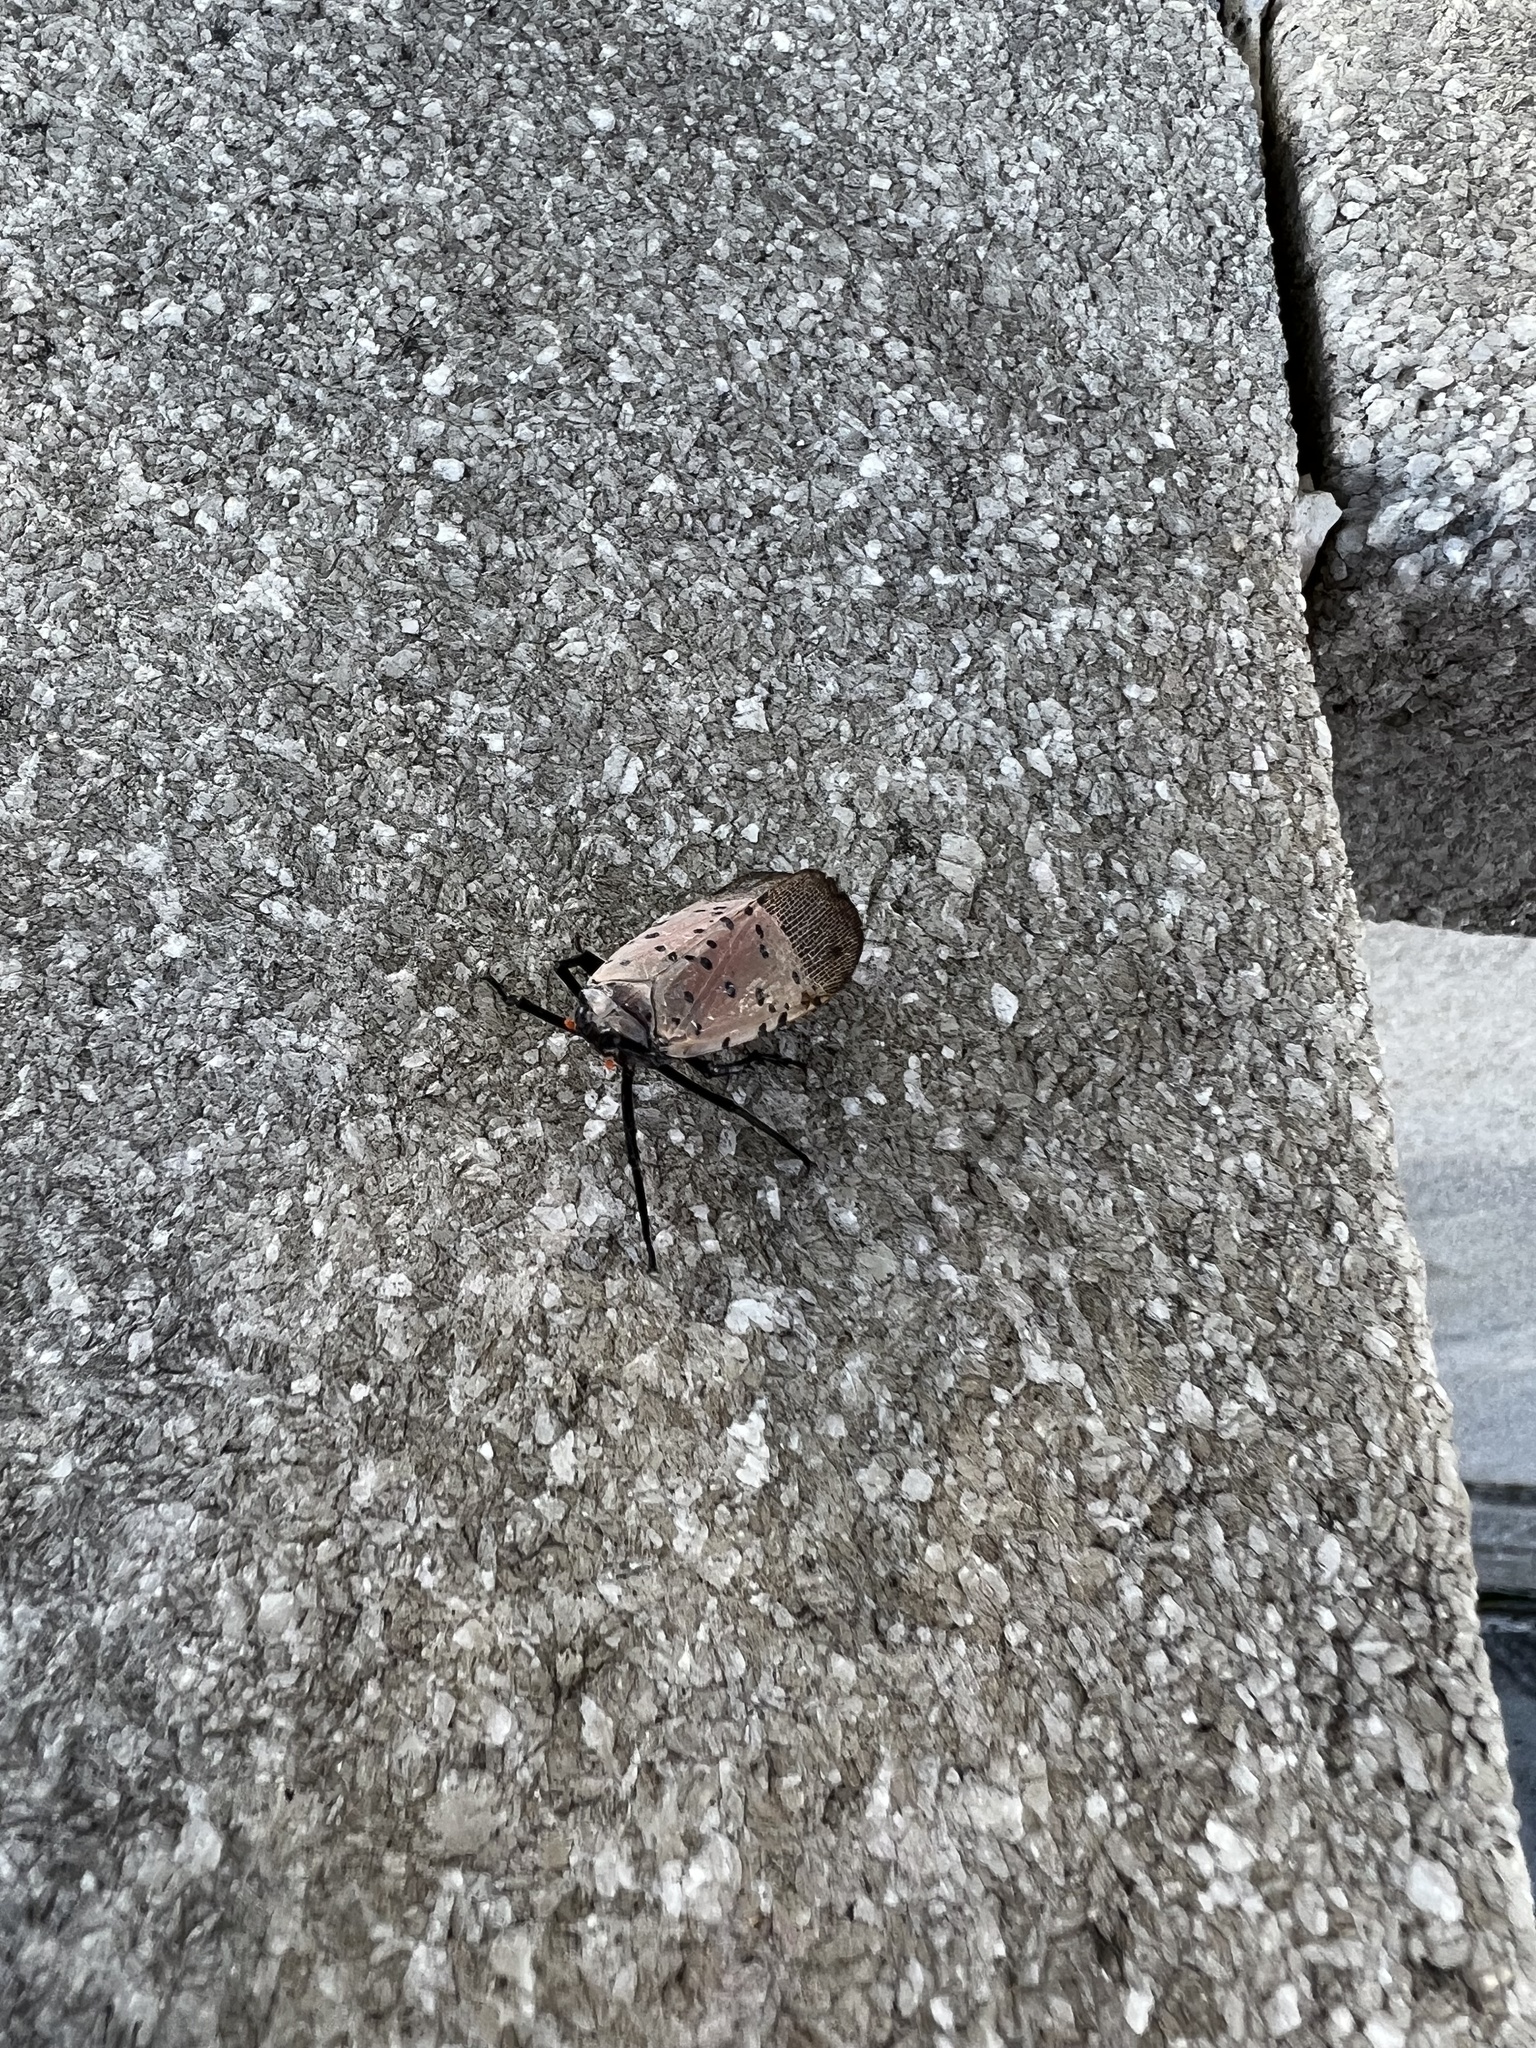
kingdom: Animalia
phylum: Arthropoda
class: Insecta
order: Hemiptera
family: Fulgoridae
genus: Lycorma
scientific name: Lycorma delicatula
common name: Spotted lanternfly
